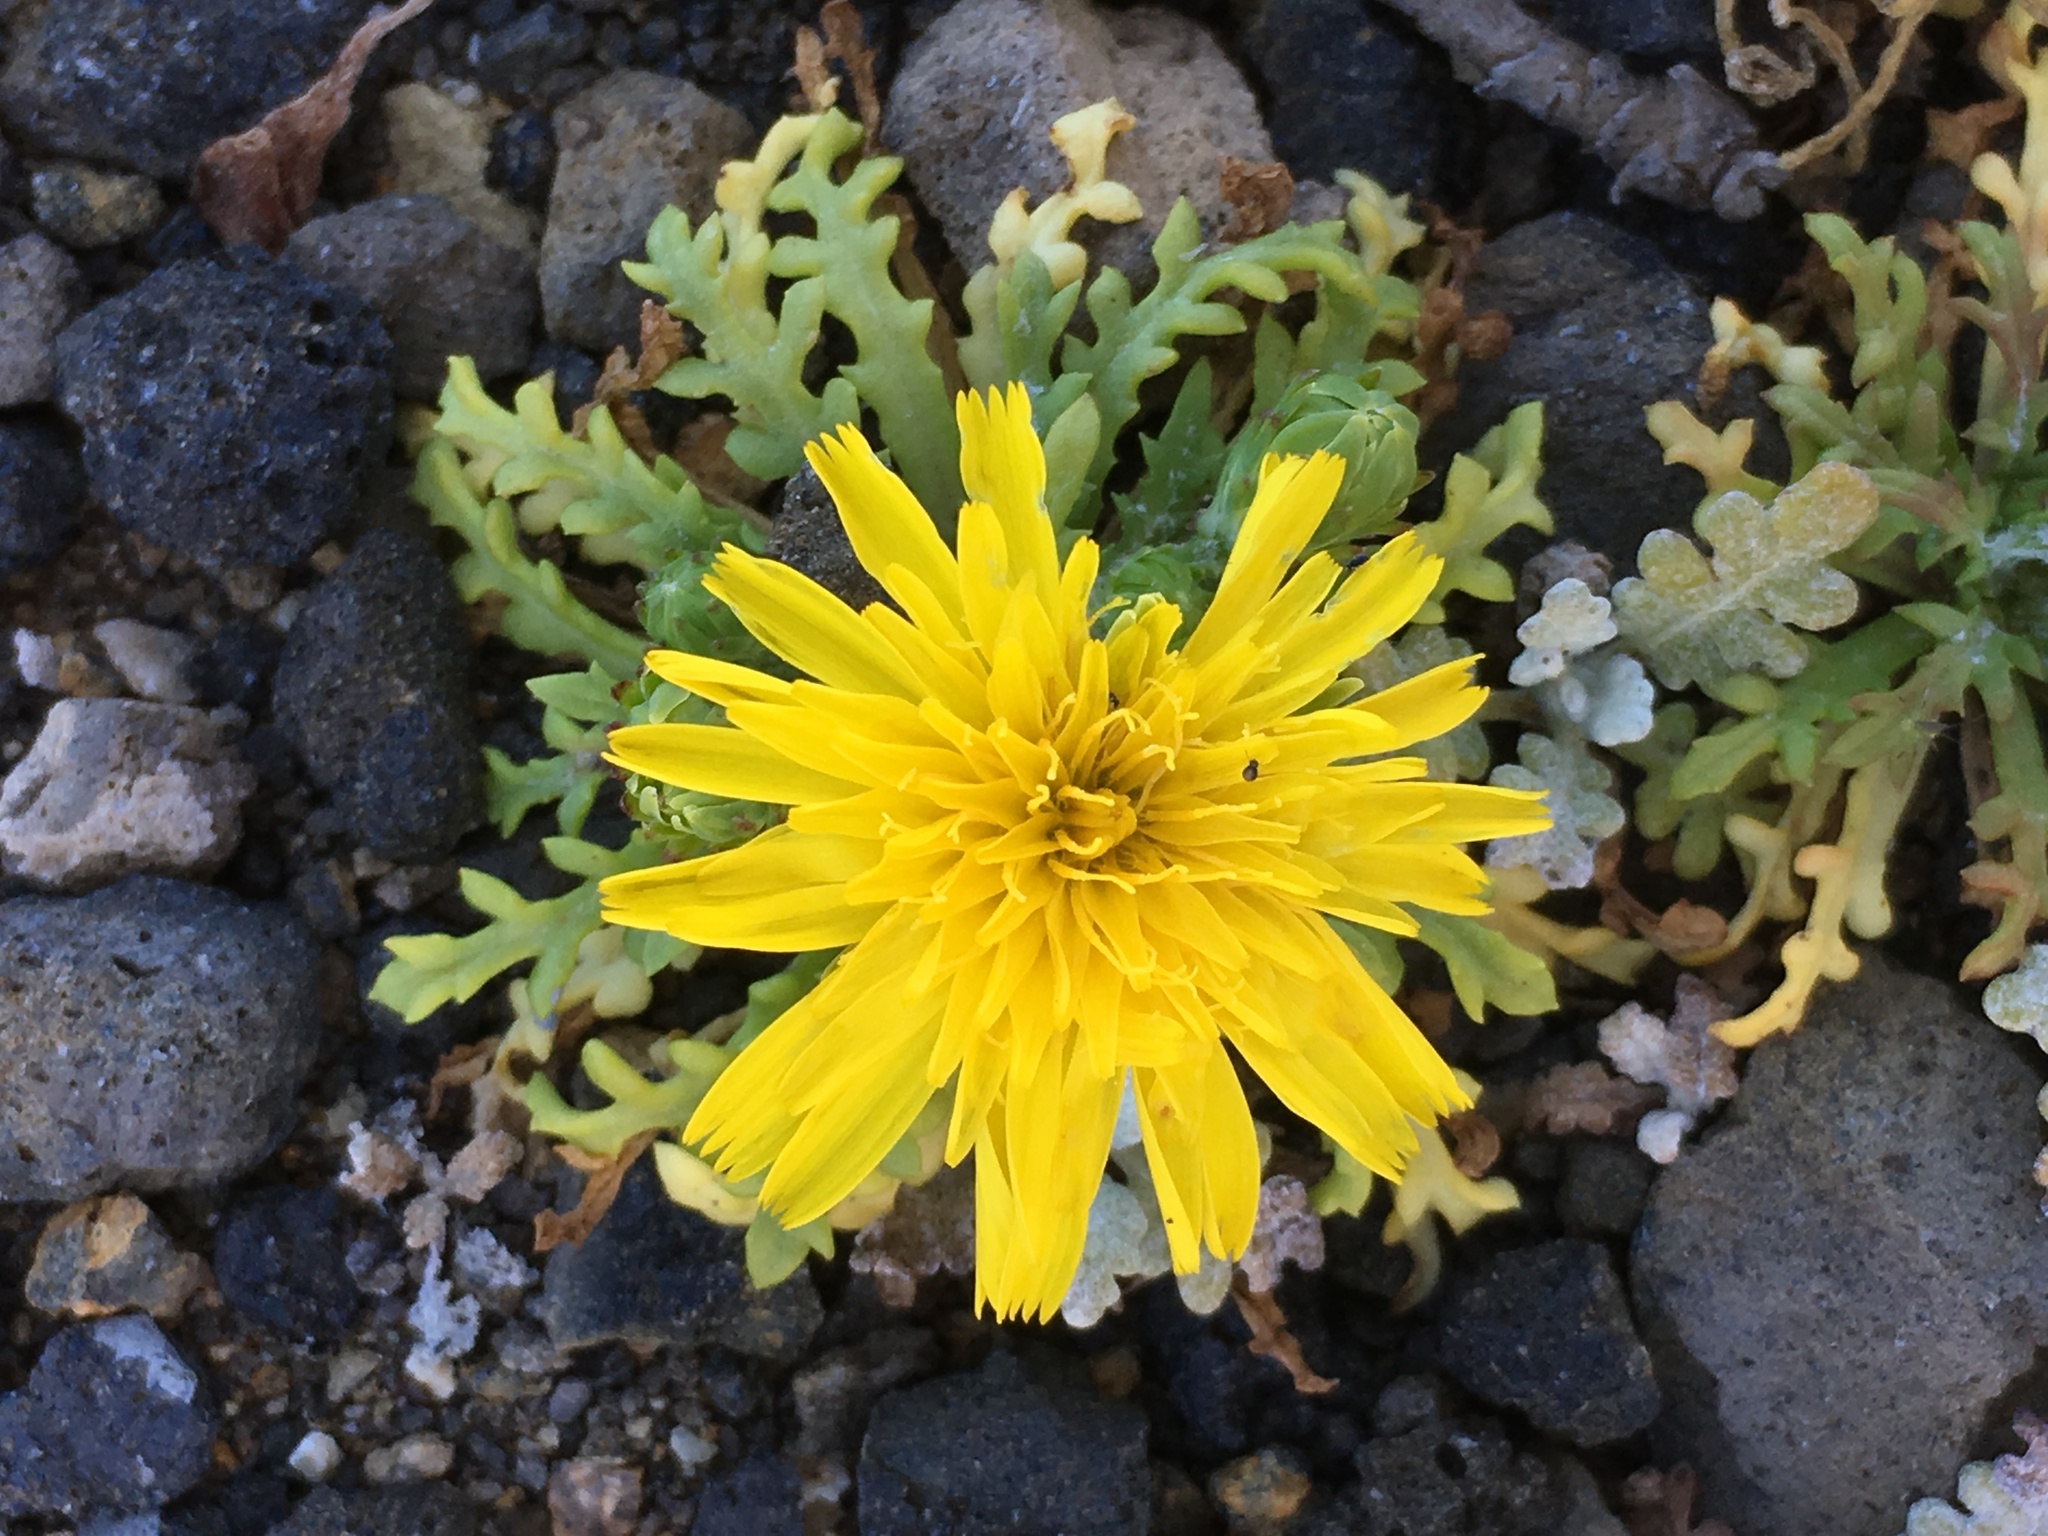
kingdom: Plantae
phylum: Tracheophyta
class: Magnoliopsida
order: Asterales
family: Asteraceae
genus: Malacothrix
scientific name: Malacothrix foliosa
